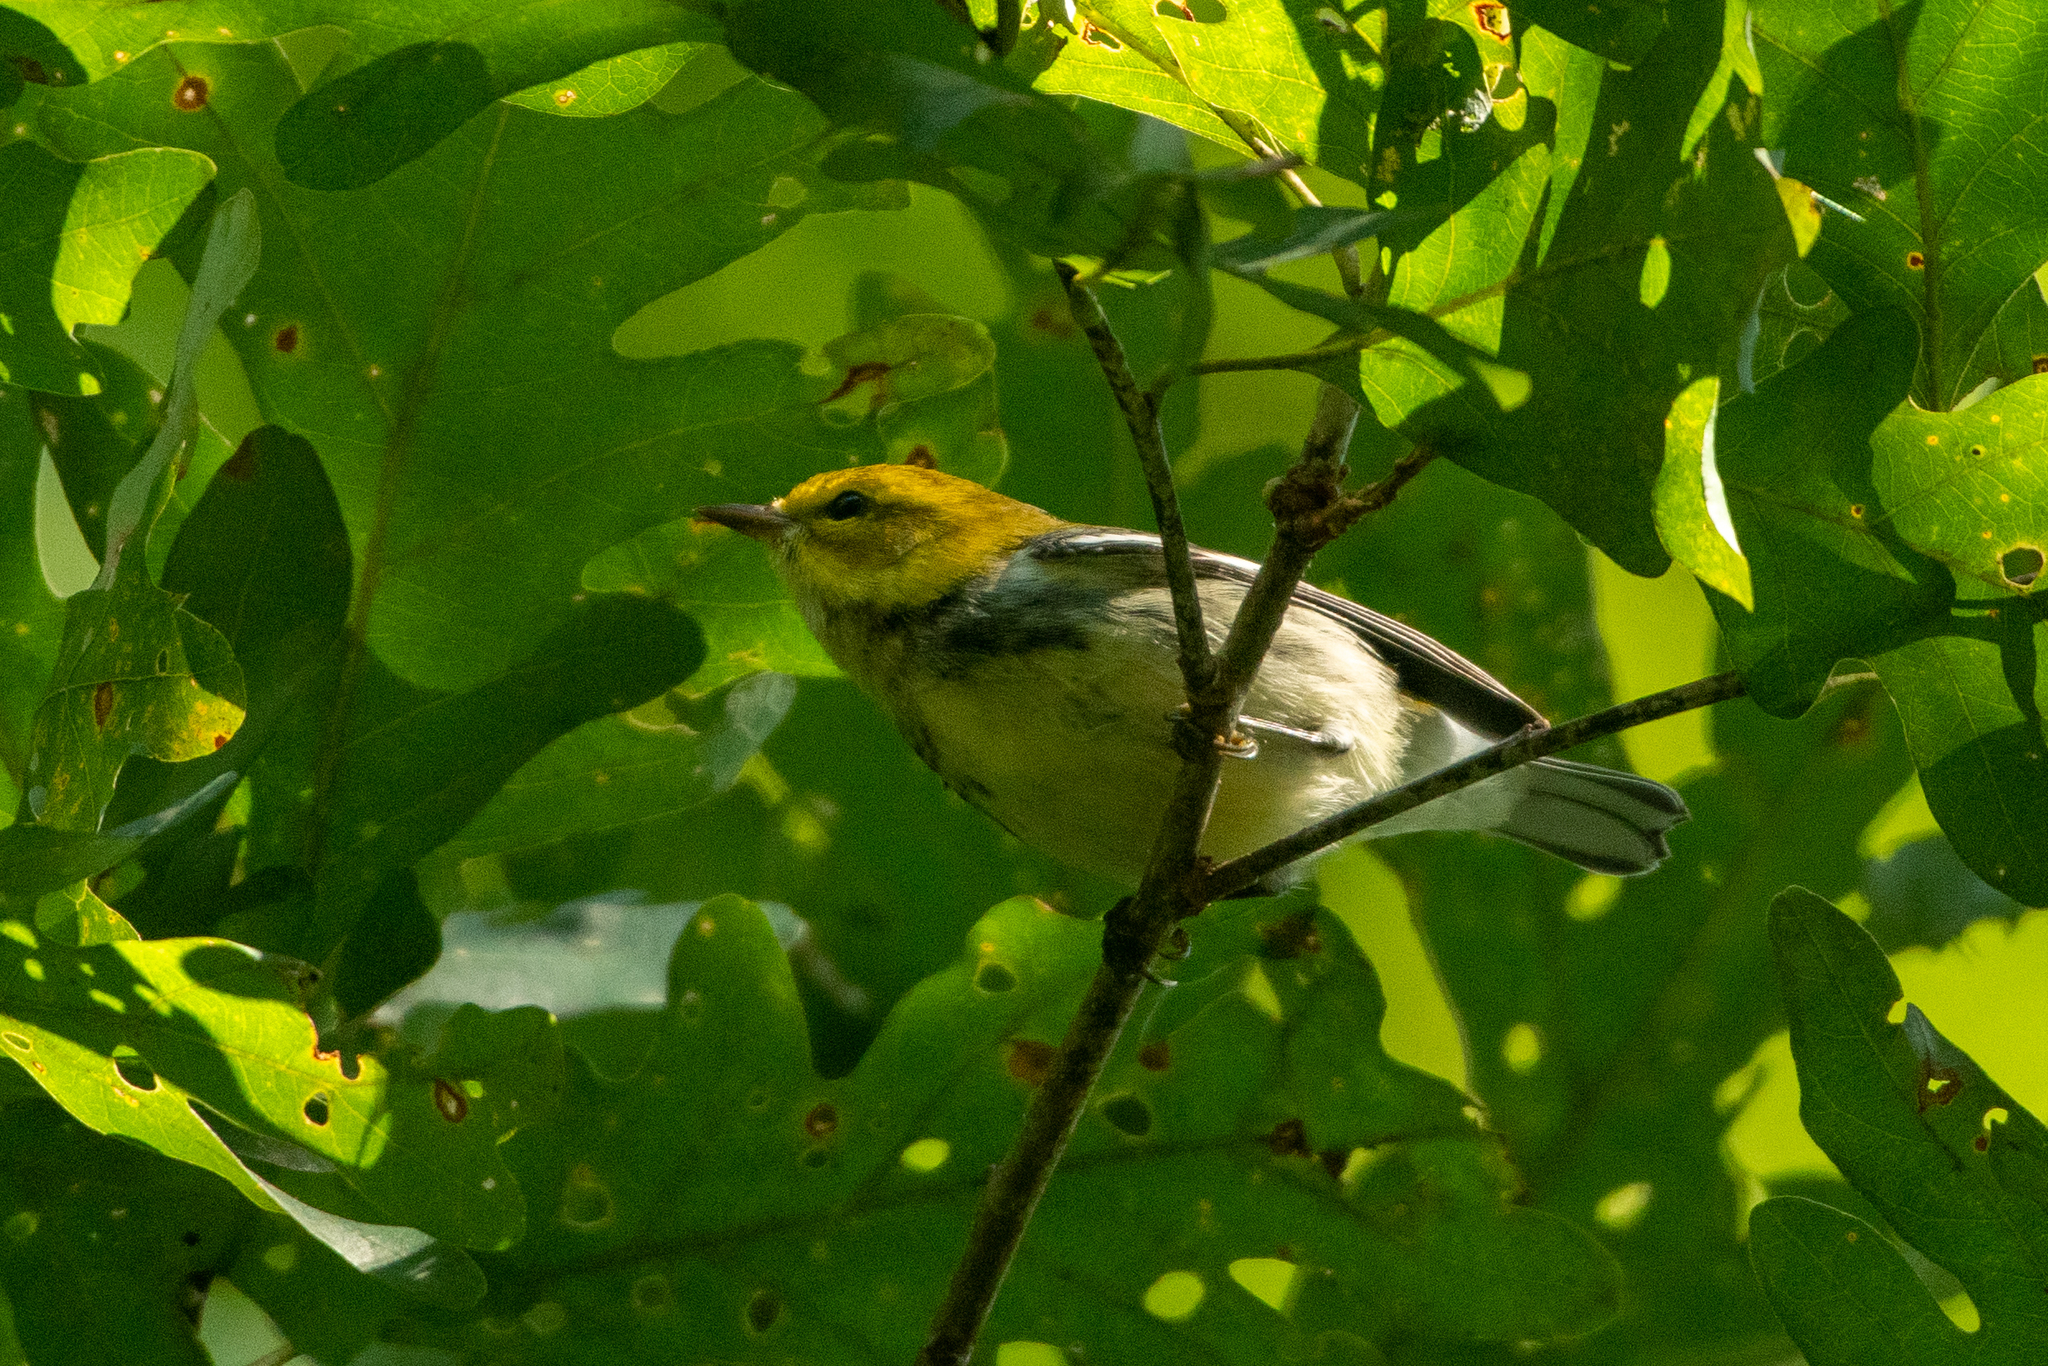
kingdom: Animalia
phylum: Chordata
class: Aves
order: Passeriformes
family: Parulidae
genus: Setophaga
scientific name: Setophaga virens
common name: Black-throated green warbler
